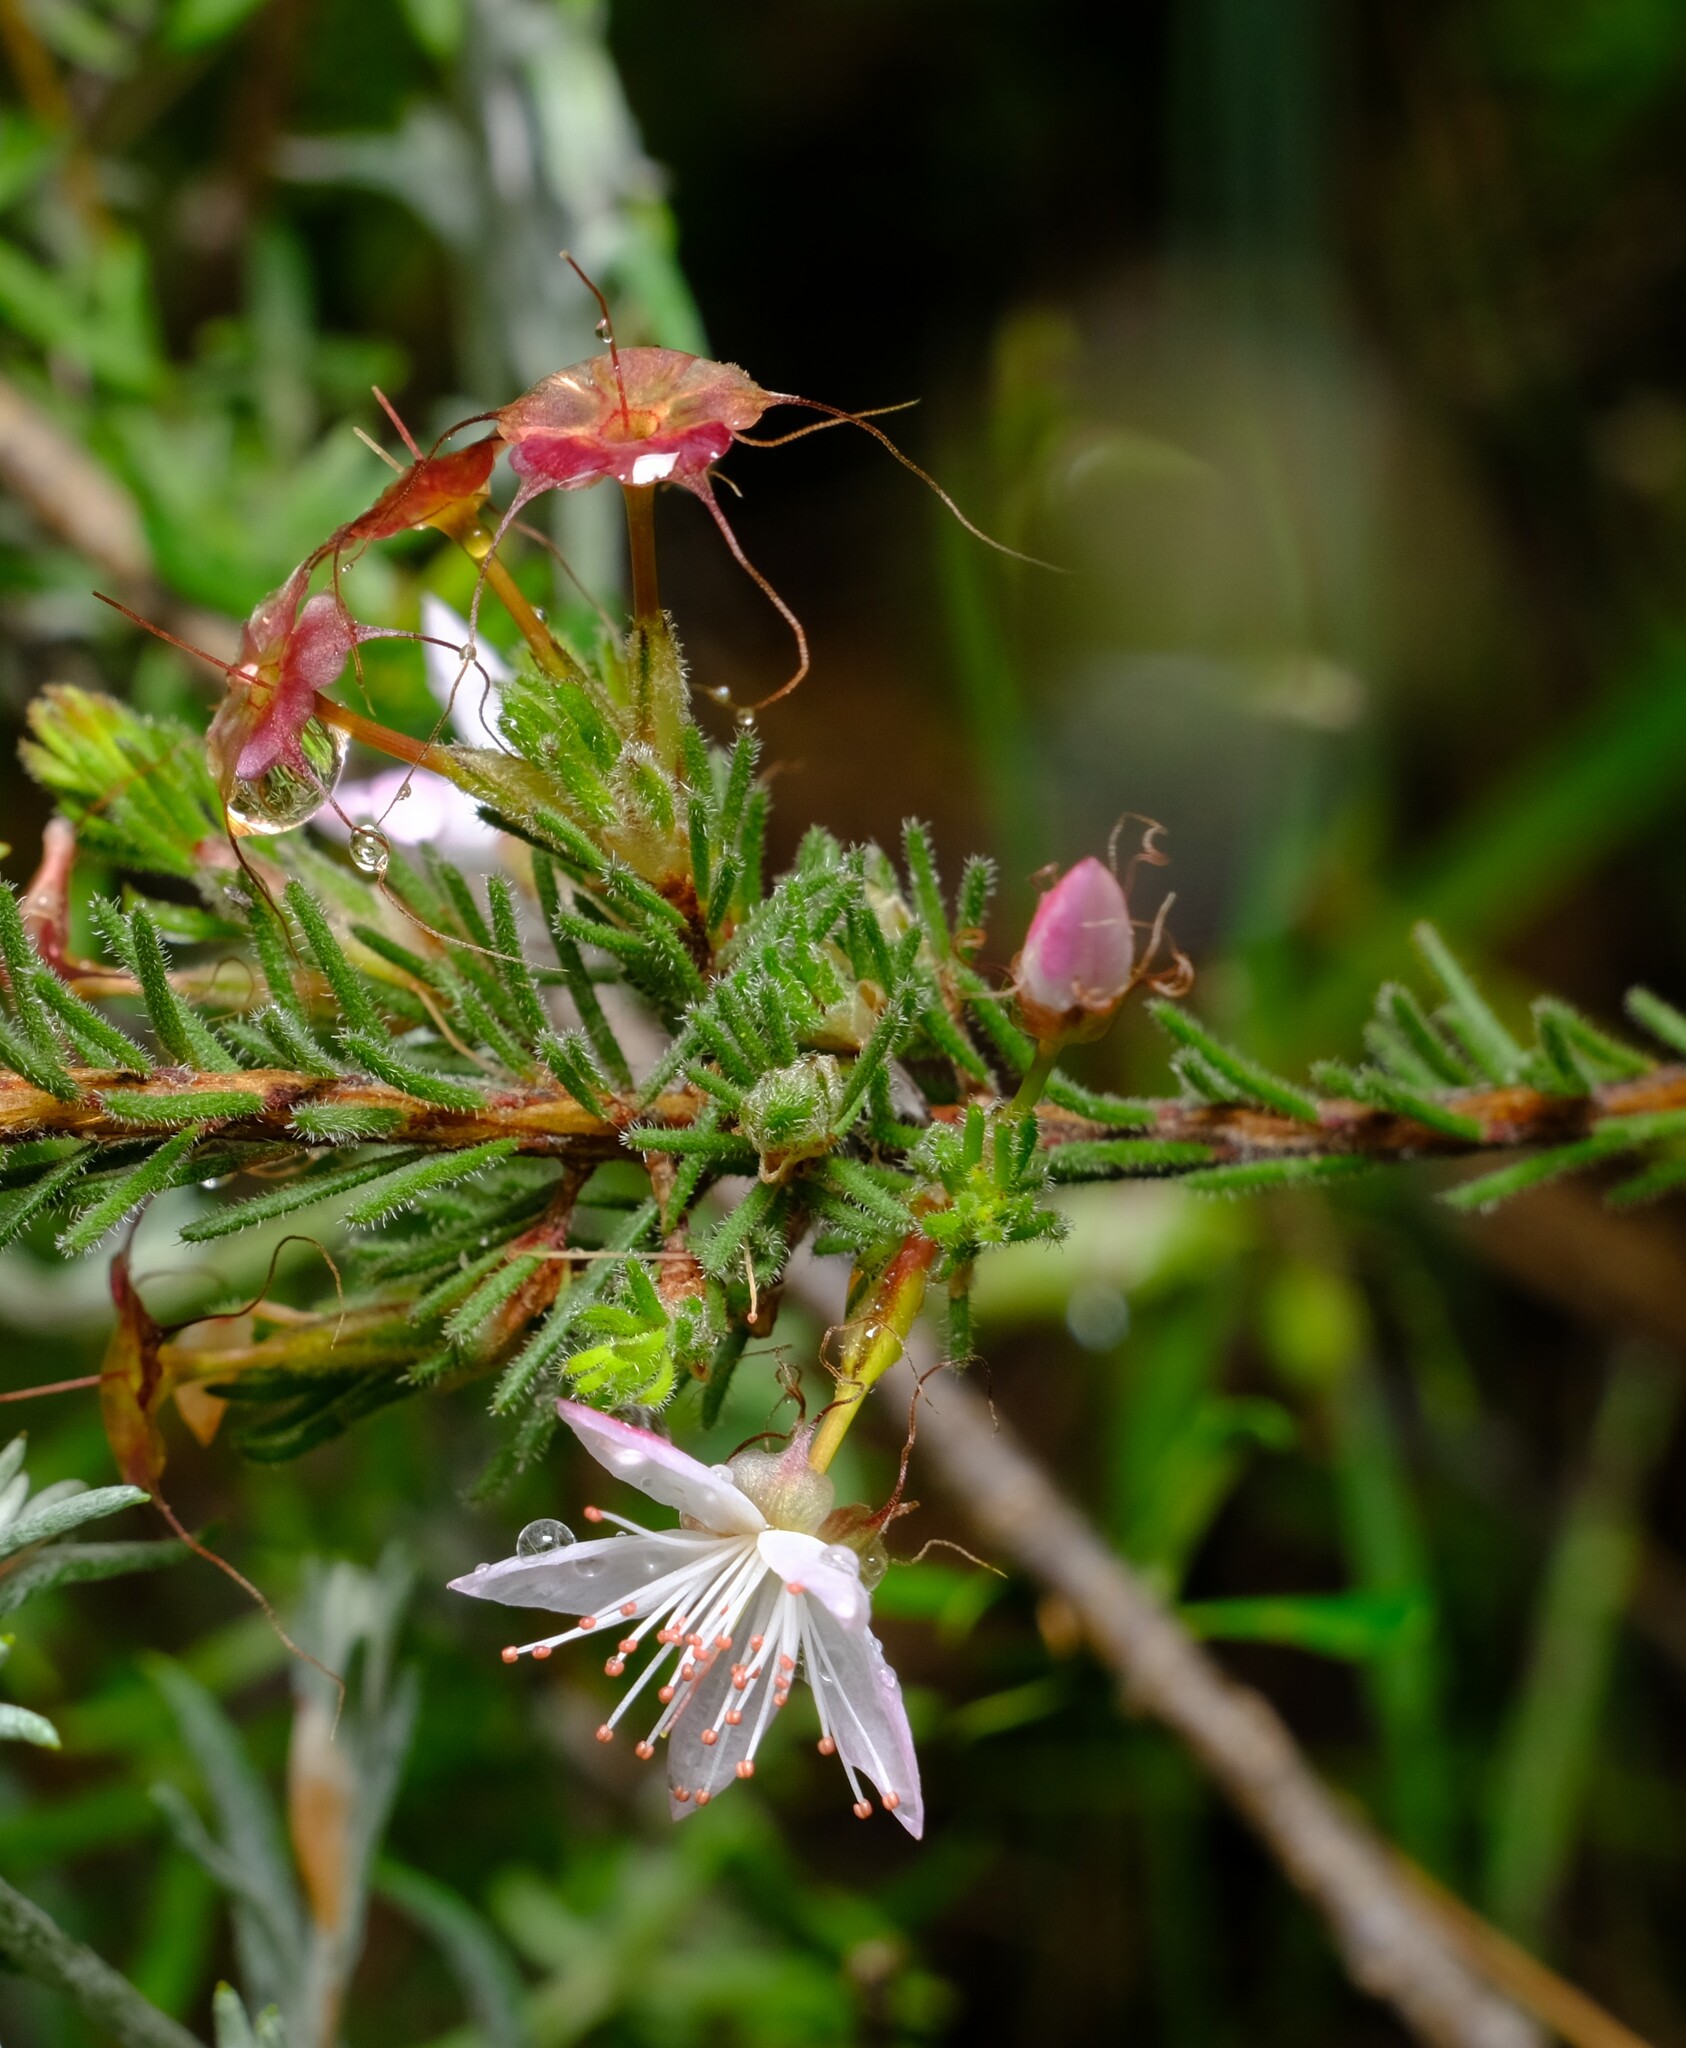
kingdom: Plantae
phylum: Tracheophyta
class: Magnoliopsida
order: Myrtales
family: Myrtaceae
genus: Calytrix
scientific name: Calytrix tetragona
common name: Common fringe myrtle
